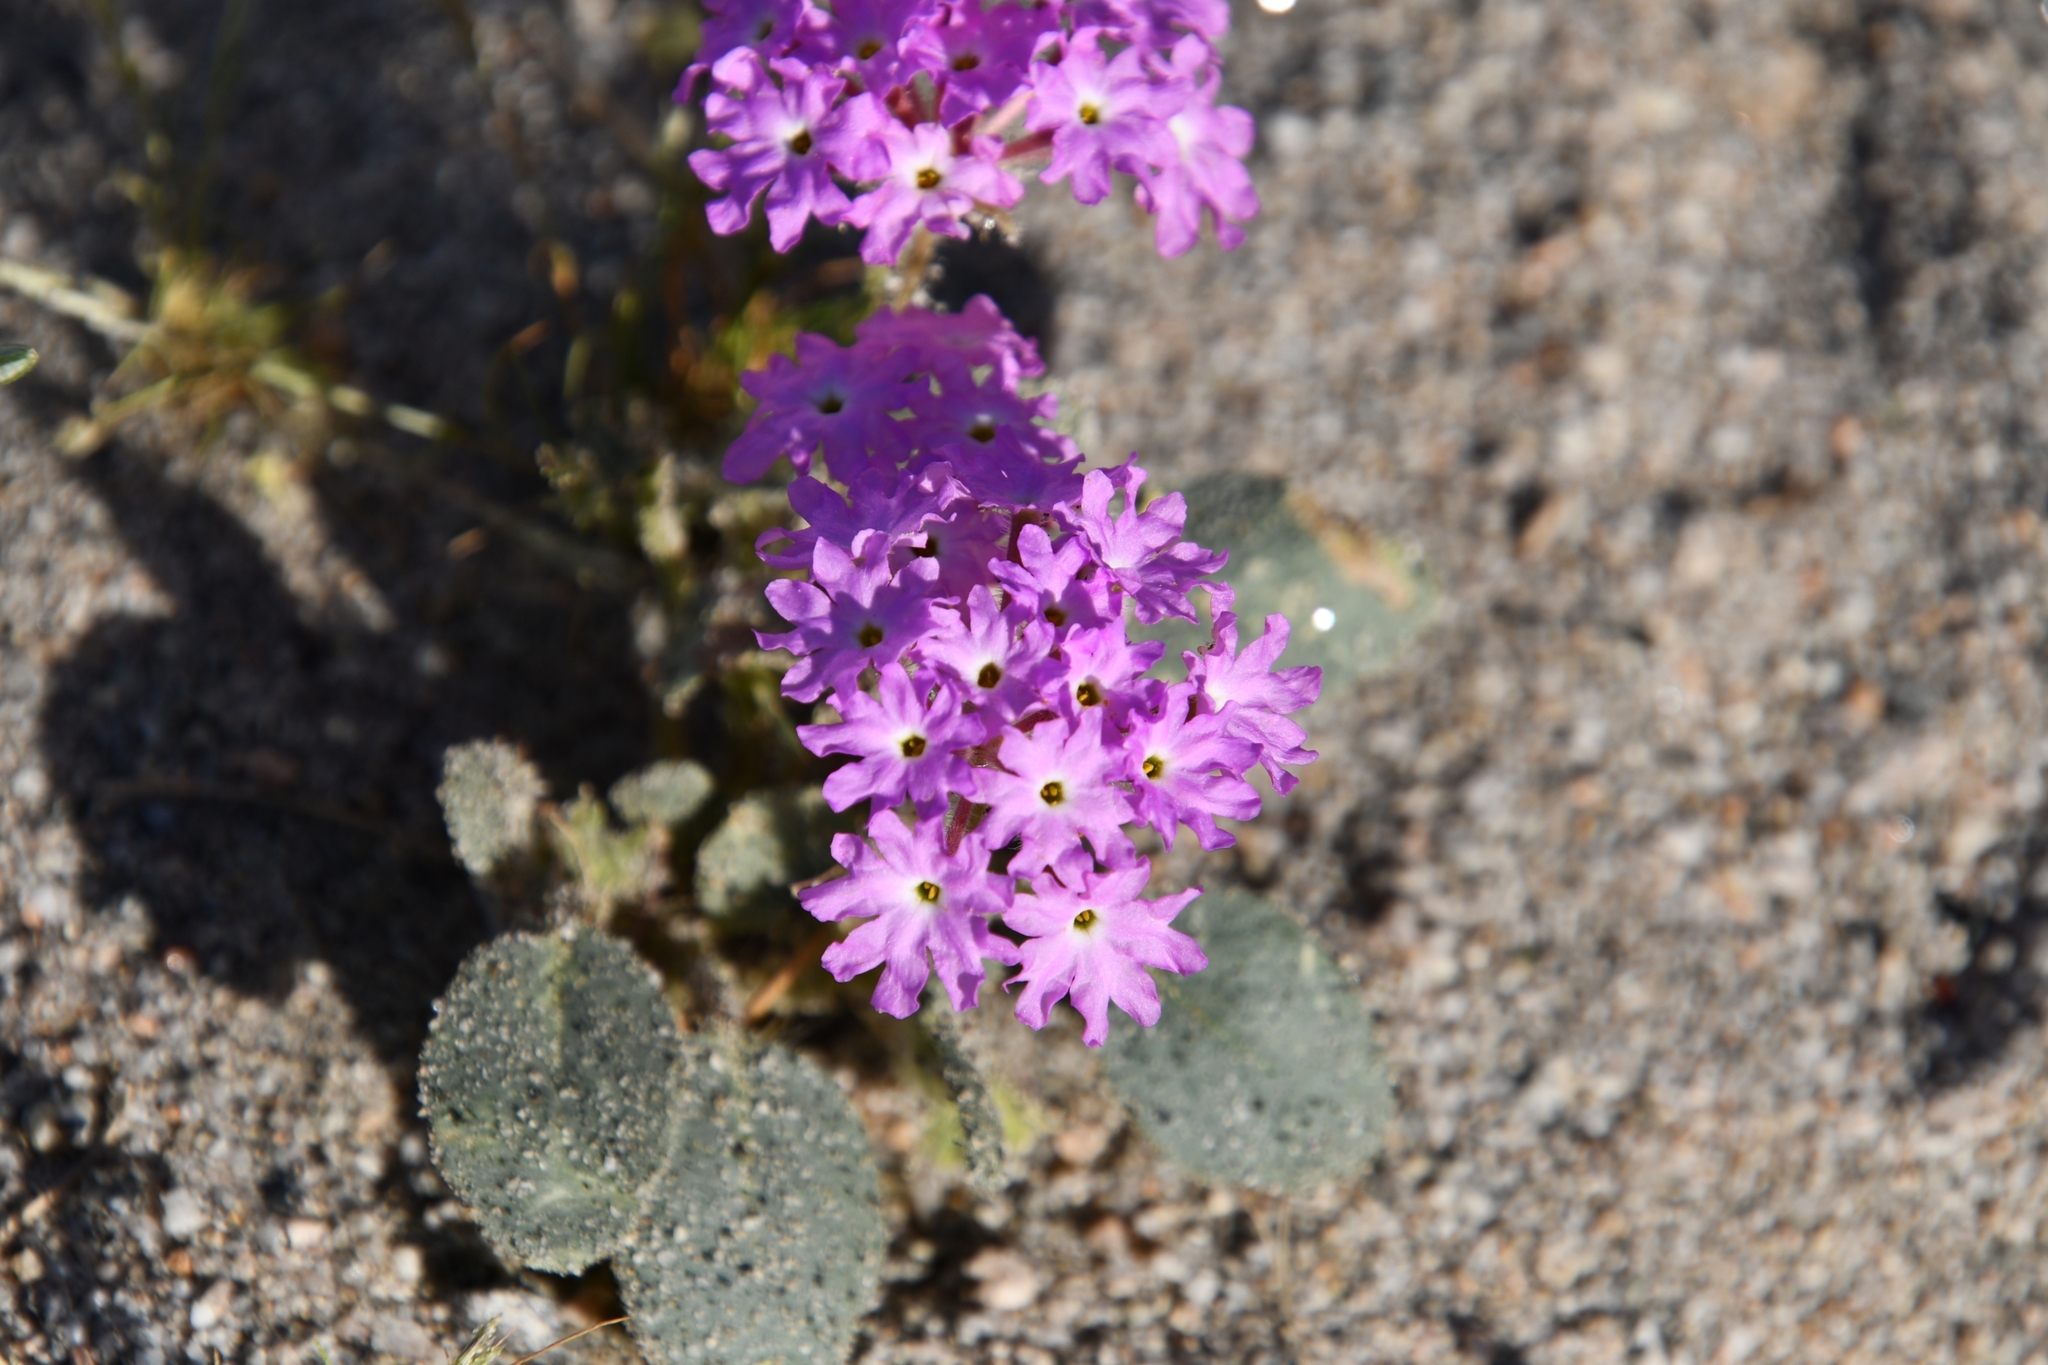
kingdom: Plantae
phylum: Tracheophyta
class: Magnoliopsida
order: Caryophyllales
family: Nyctaginaceae
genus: Abronia
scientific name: Abronia villosa
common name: Desert sand-verbena
